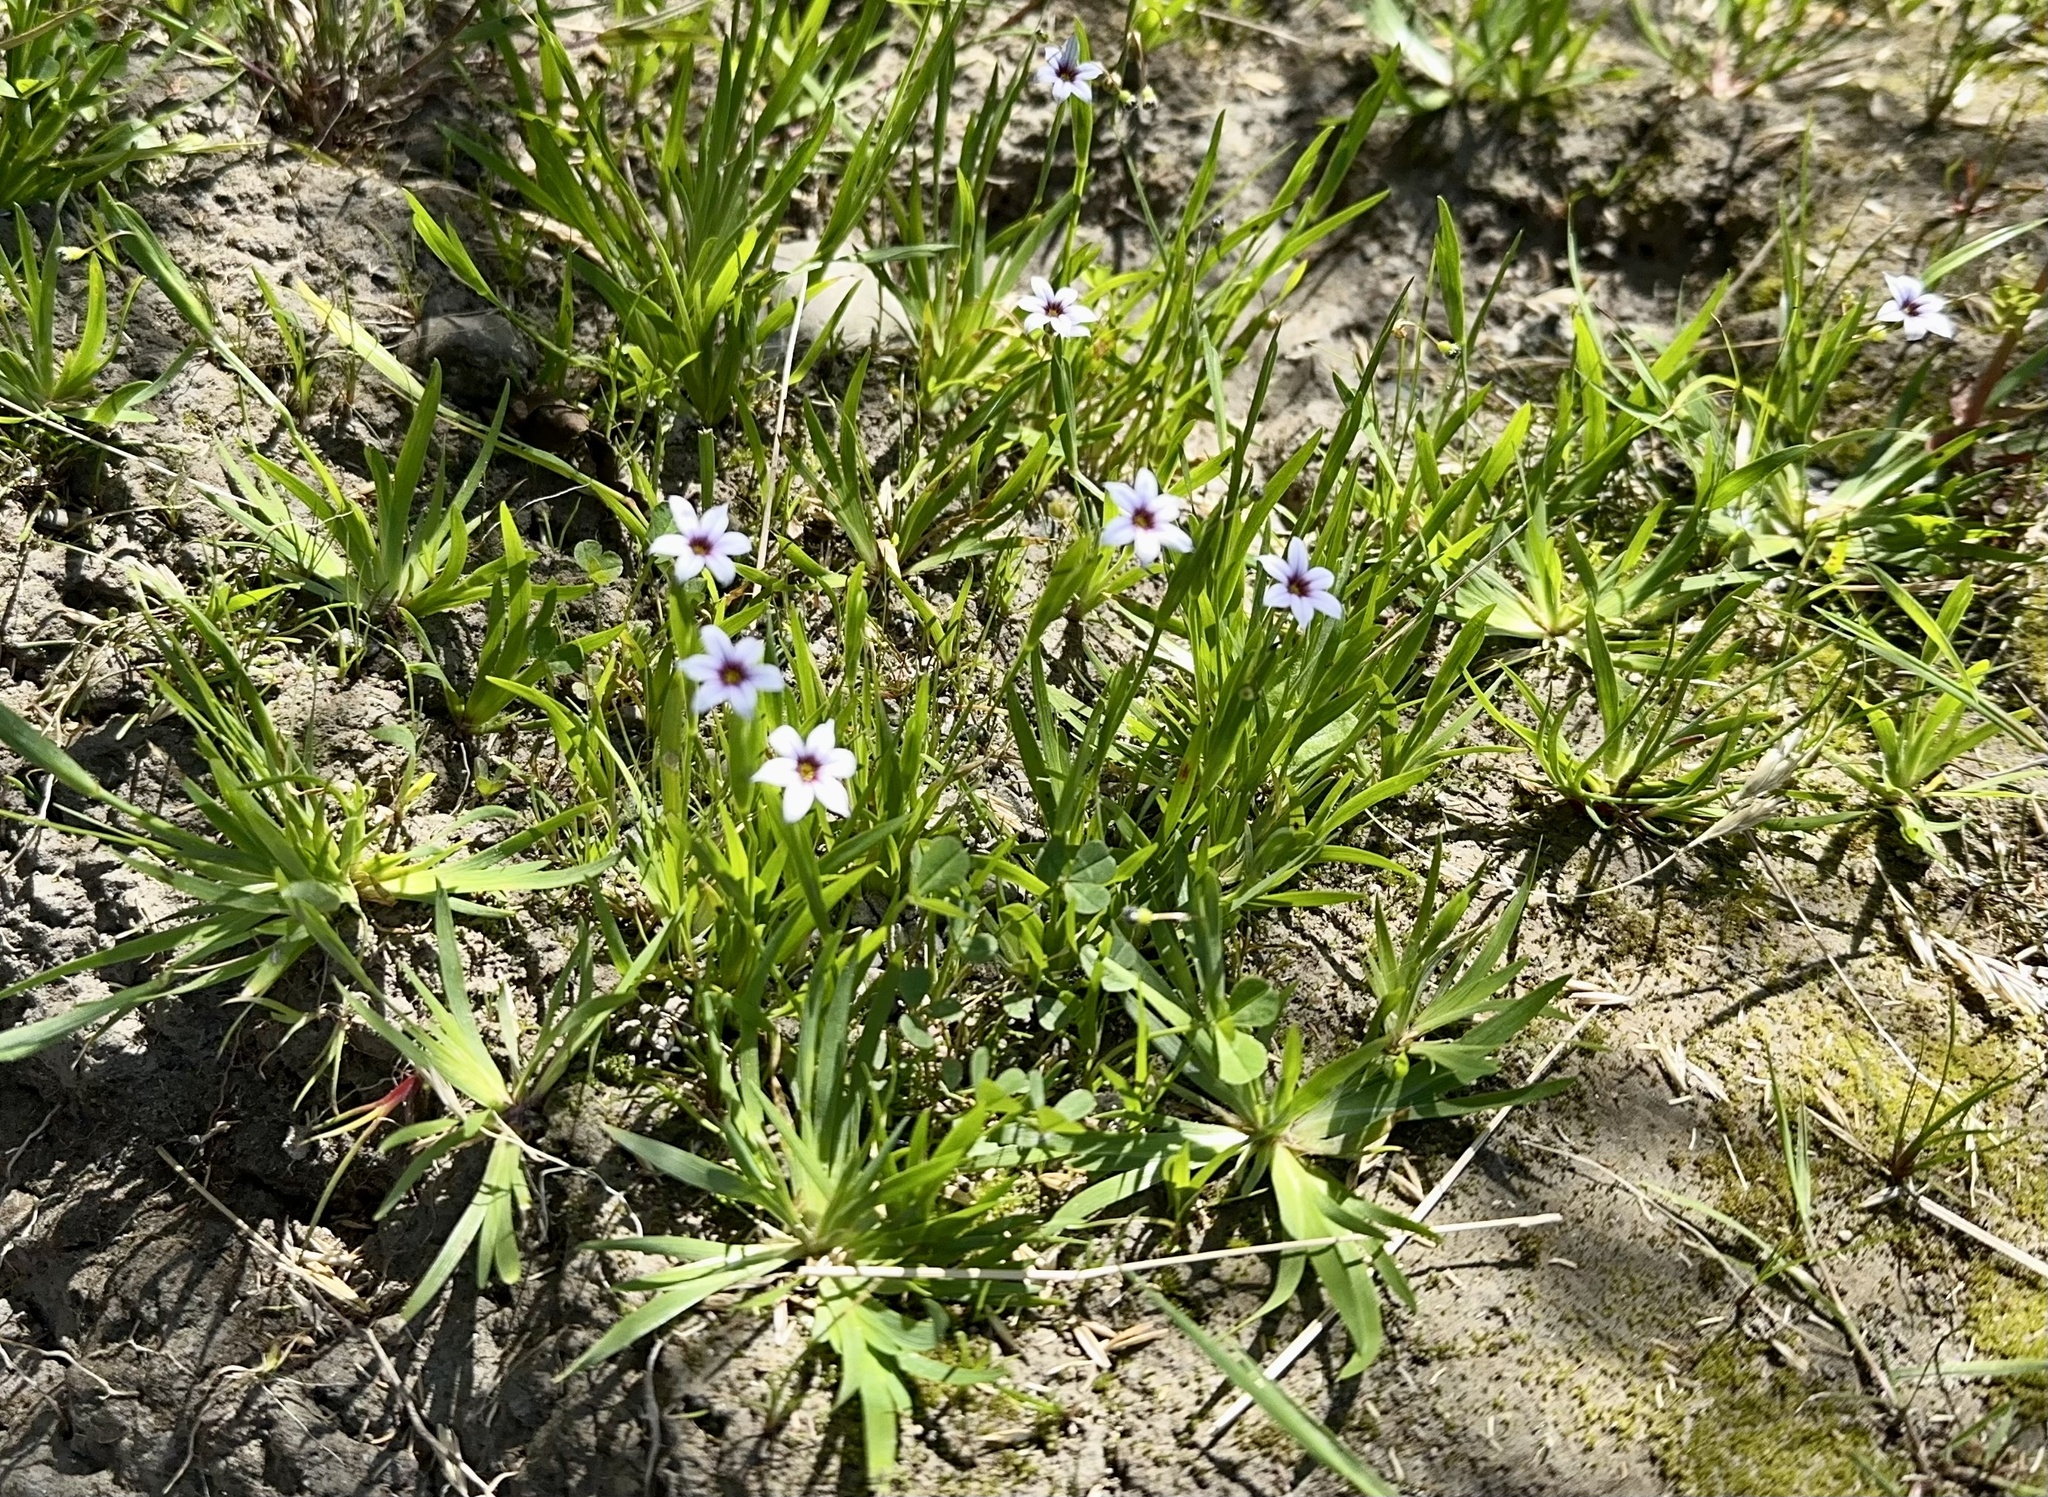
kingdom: Plantae
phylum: Tracheophyta
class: Liliopsida
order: Asparagales
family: Iridaceae
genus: Sisyrinchium
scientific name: Sisyrinchium micranthum
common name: Bermuda pigroot
